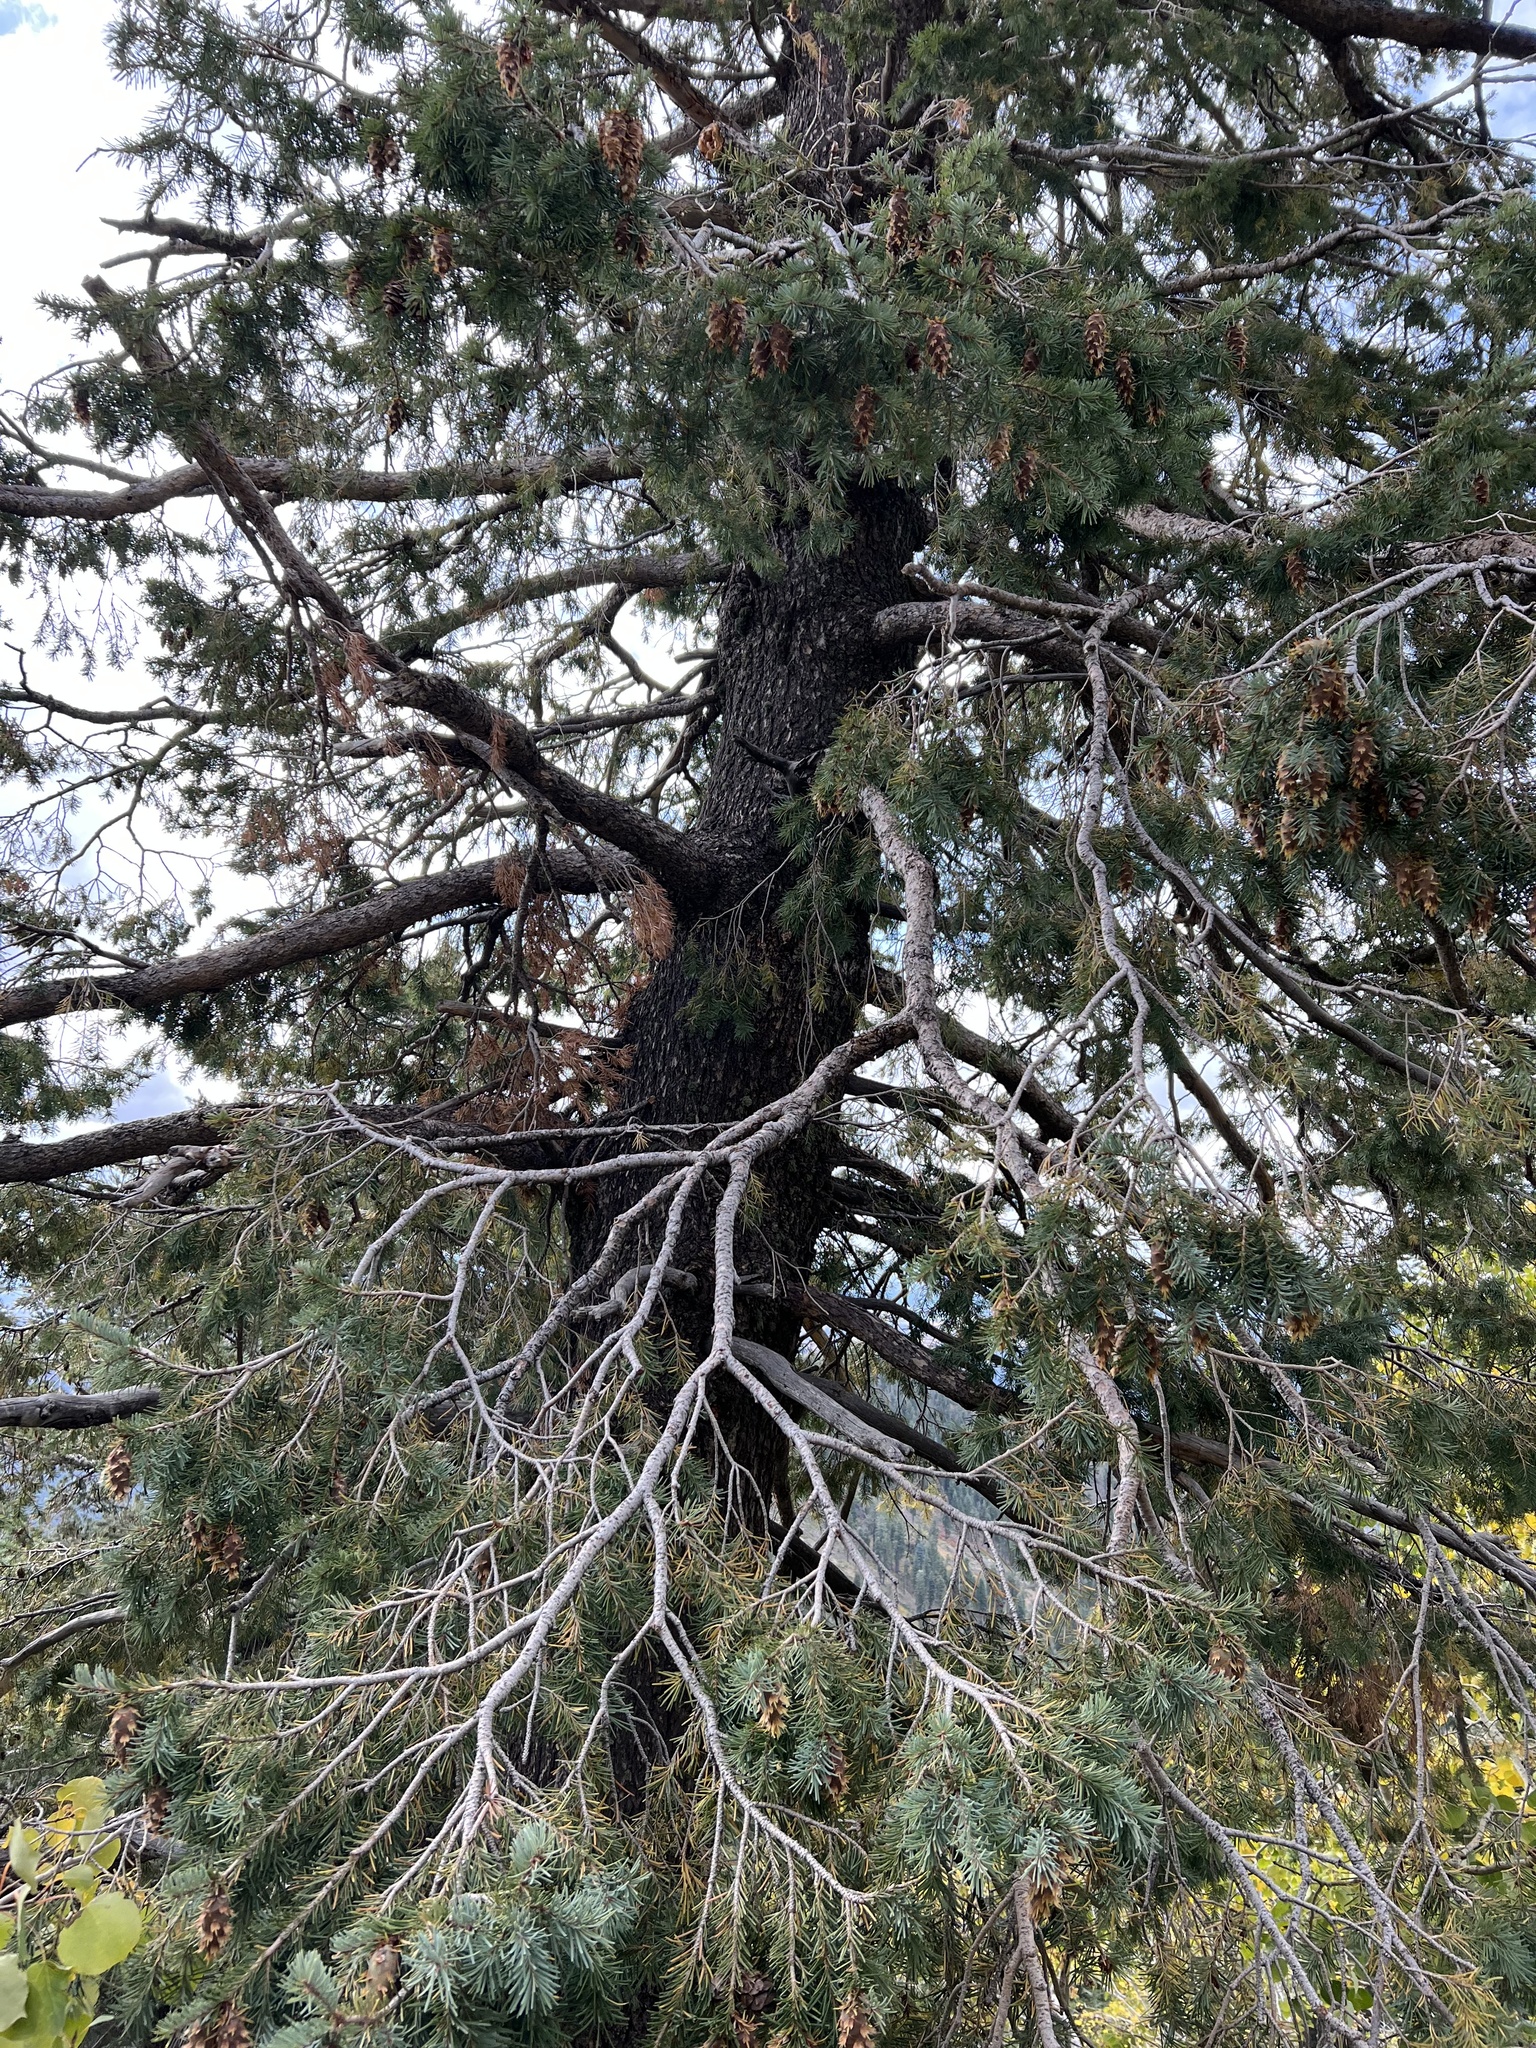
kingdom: Plantae
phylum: Tracheophyta
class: Pinopsida
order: Pinales
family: Pinaceae
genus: Pseudotsuga
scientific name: Pseudotsuga menziesii
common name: Douglas fir
